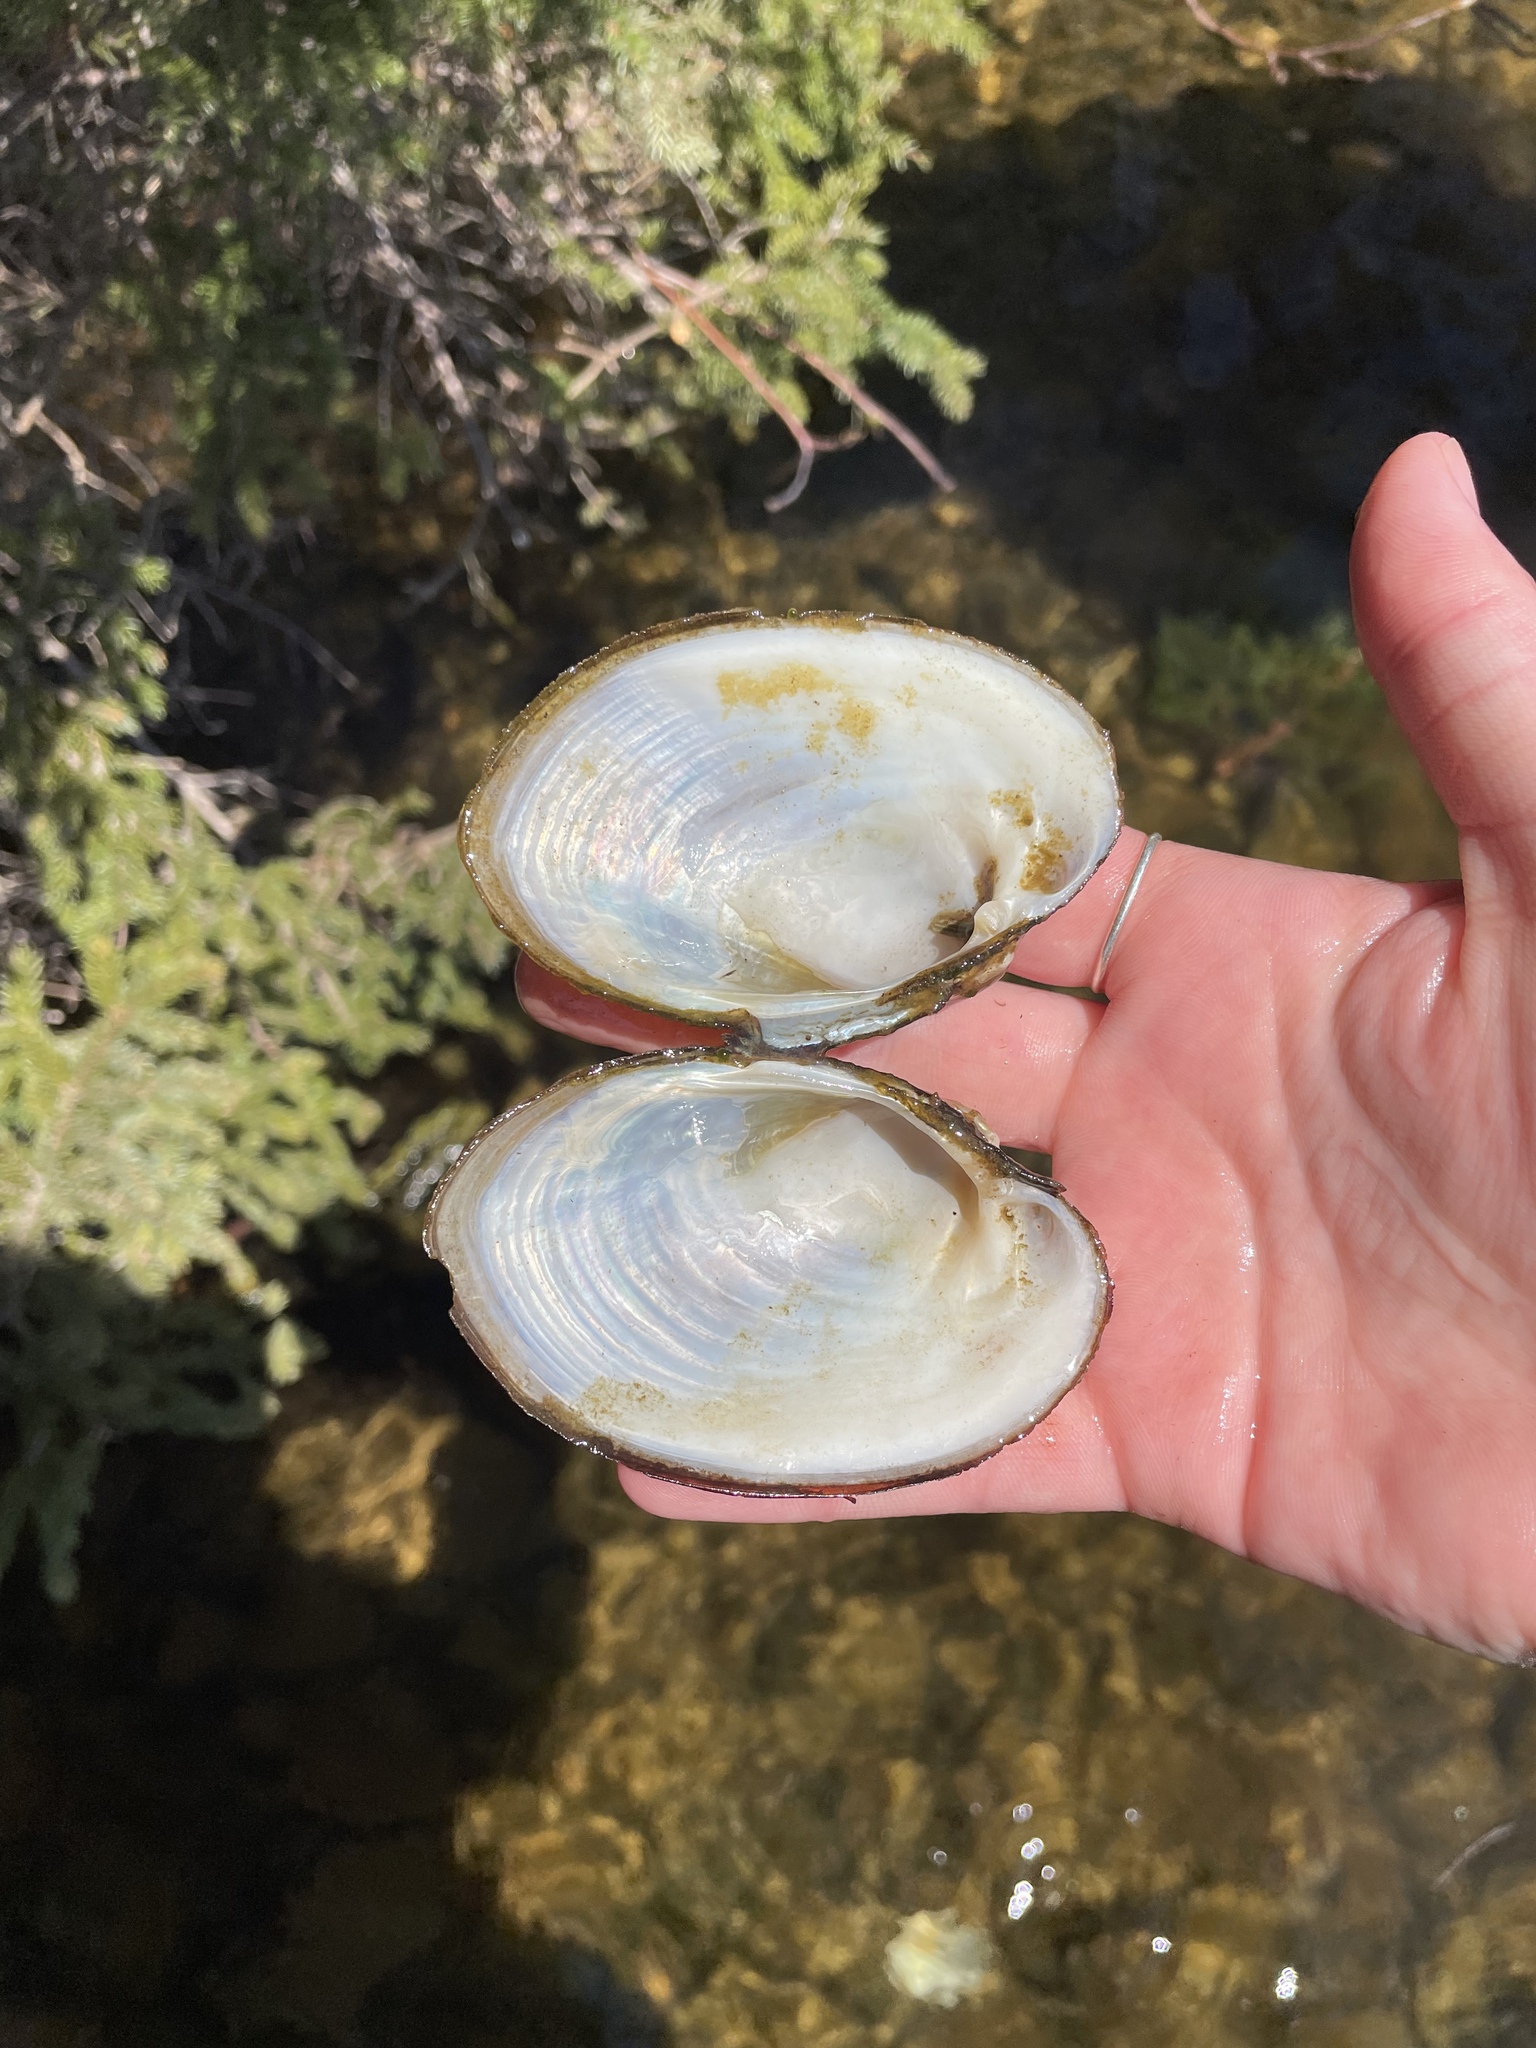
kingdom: Animalia
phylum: Mollusca
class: Bivalvia
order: Unionida
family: Unionidae
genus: Lampsilis
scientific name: Lampsilis cariosa
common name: Yellow lampmussel
